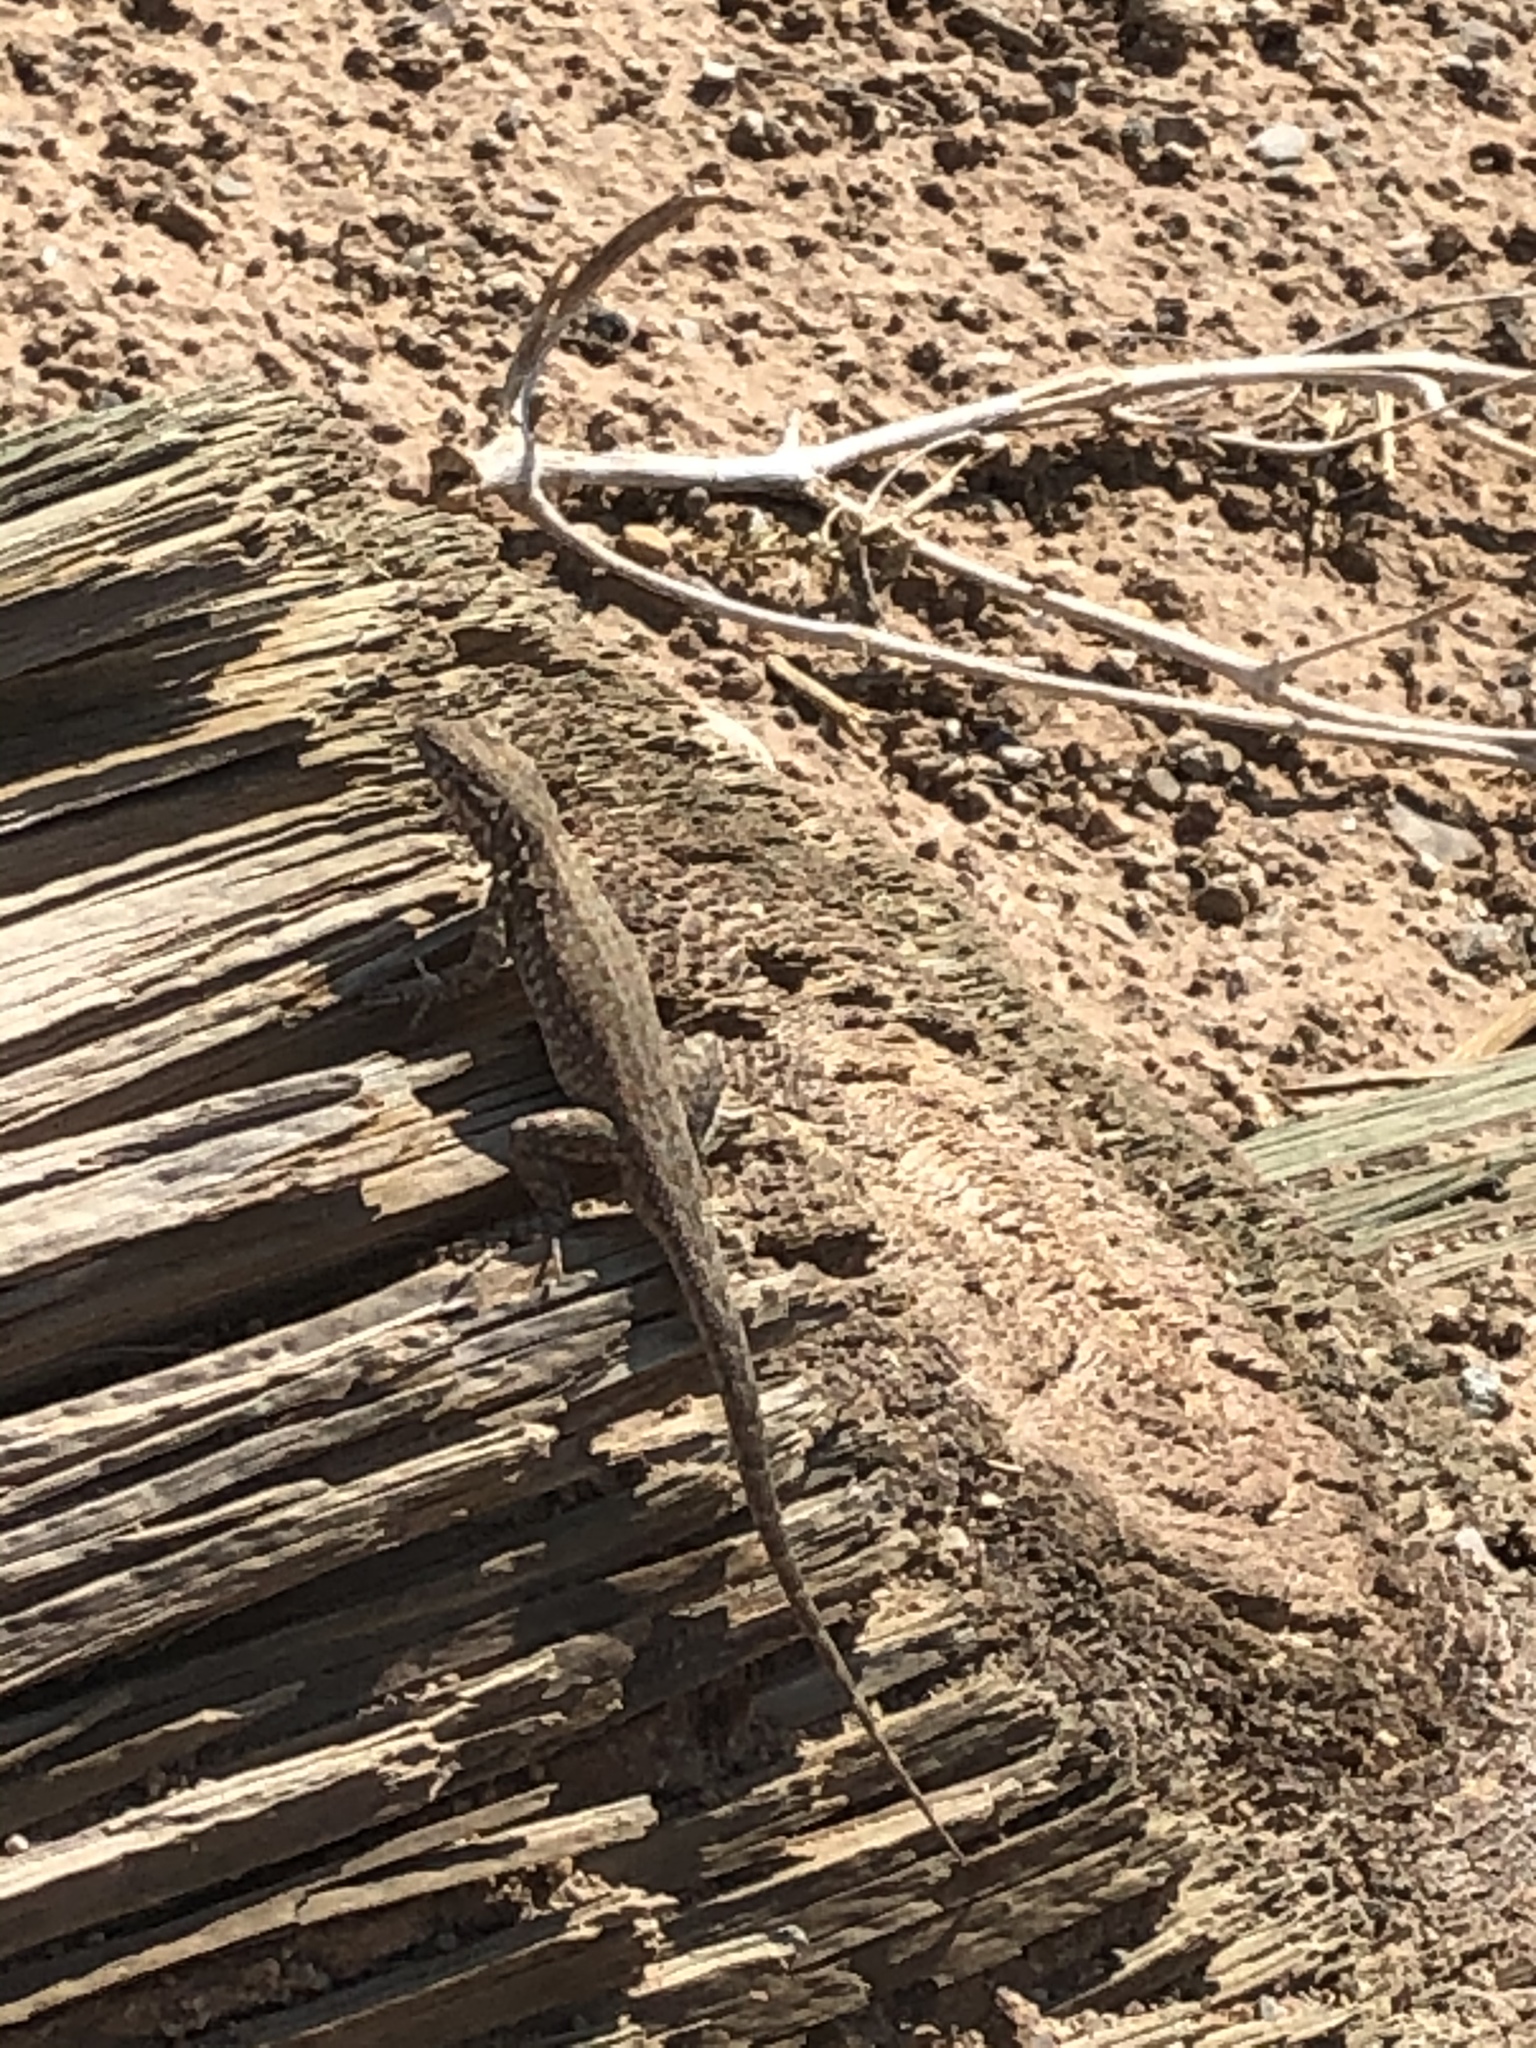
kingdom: Animalia
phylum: Chordata
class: Squamata
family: Phrynosomatidae
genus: Uta
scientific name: Uta stansburiana
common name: Side-blotched lizard
